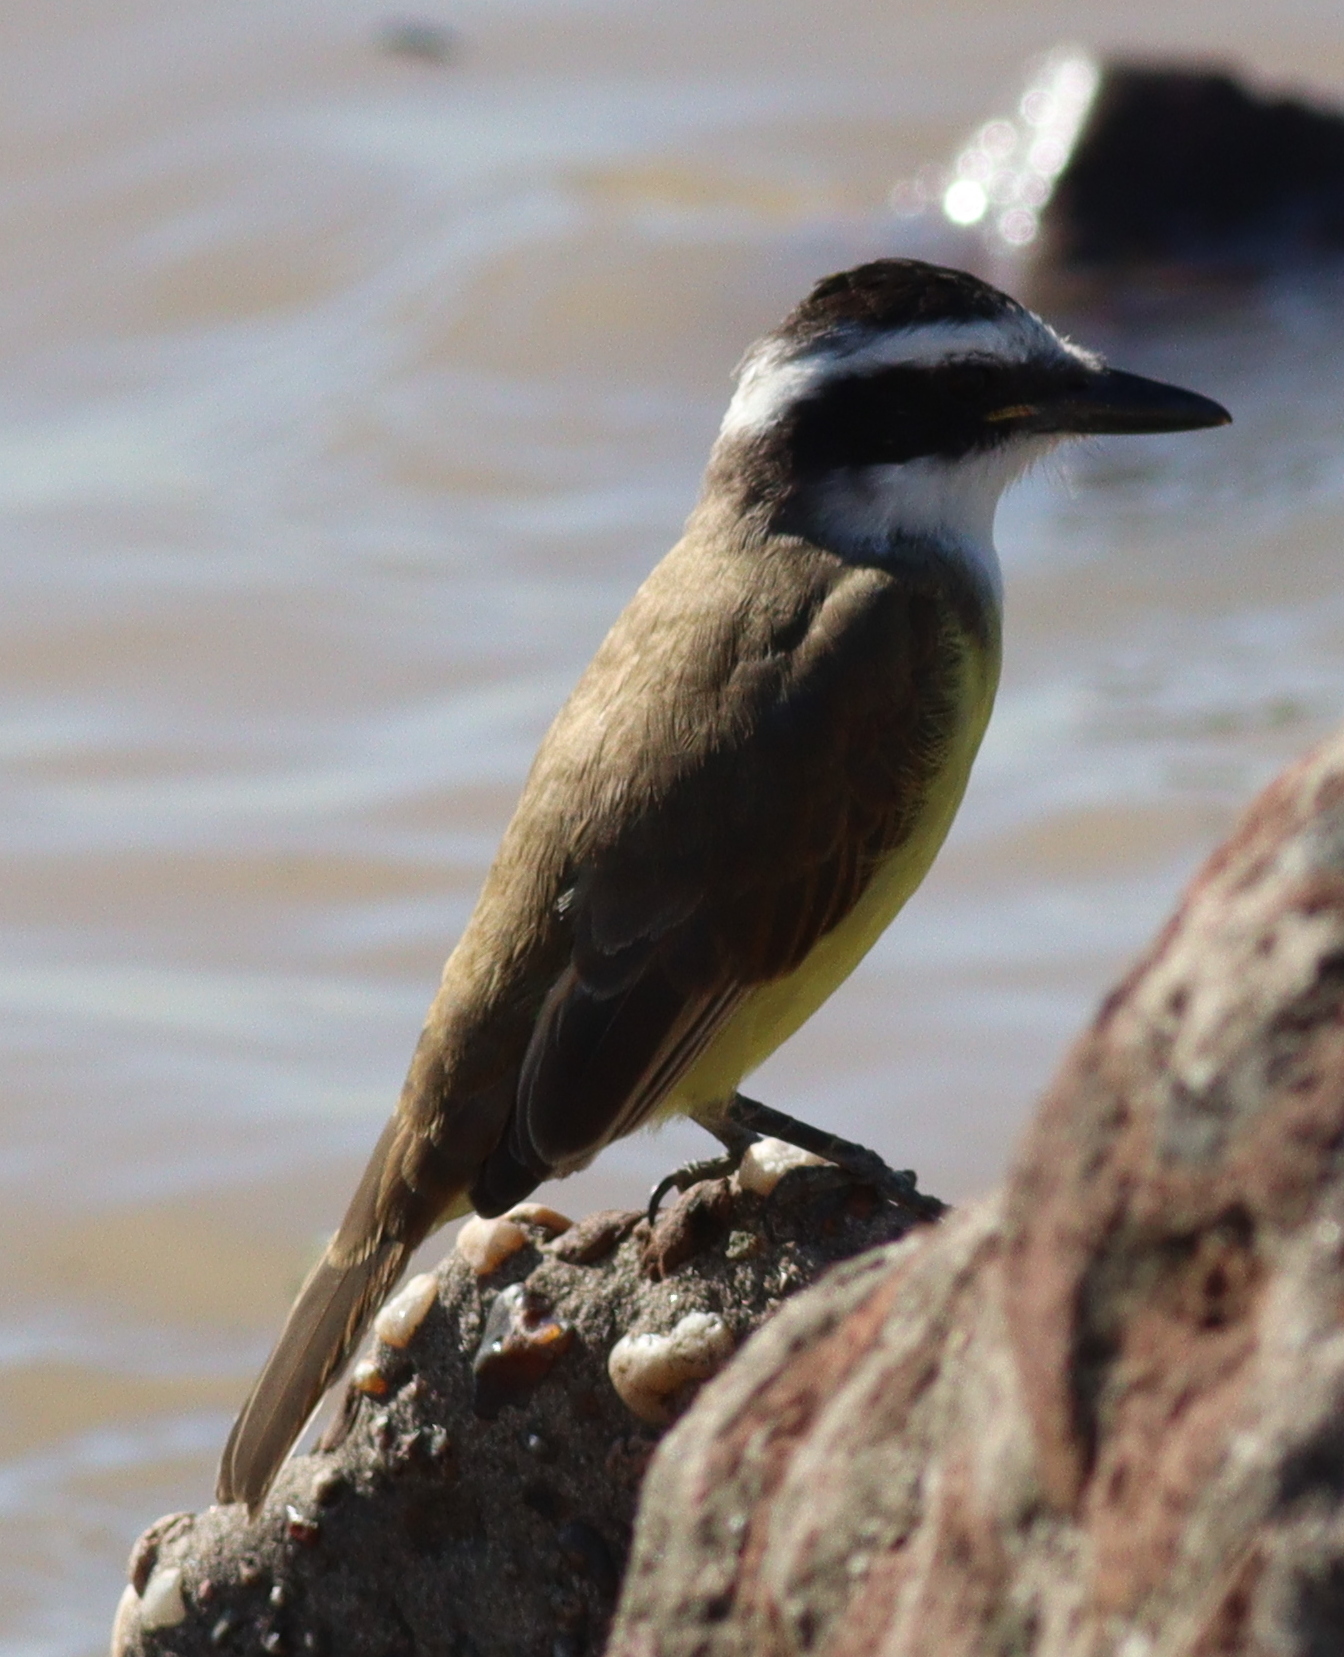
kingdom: Animalia
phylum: Chordata
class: Aves
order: Passeriformes
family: Tyrannidae
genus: Pitangus
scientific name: Pitangus sulphuratus
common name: Great kiskadee
